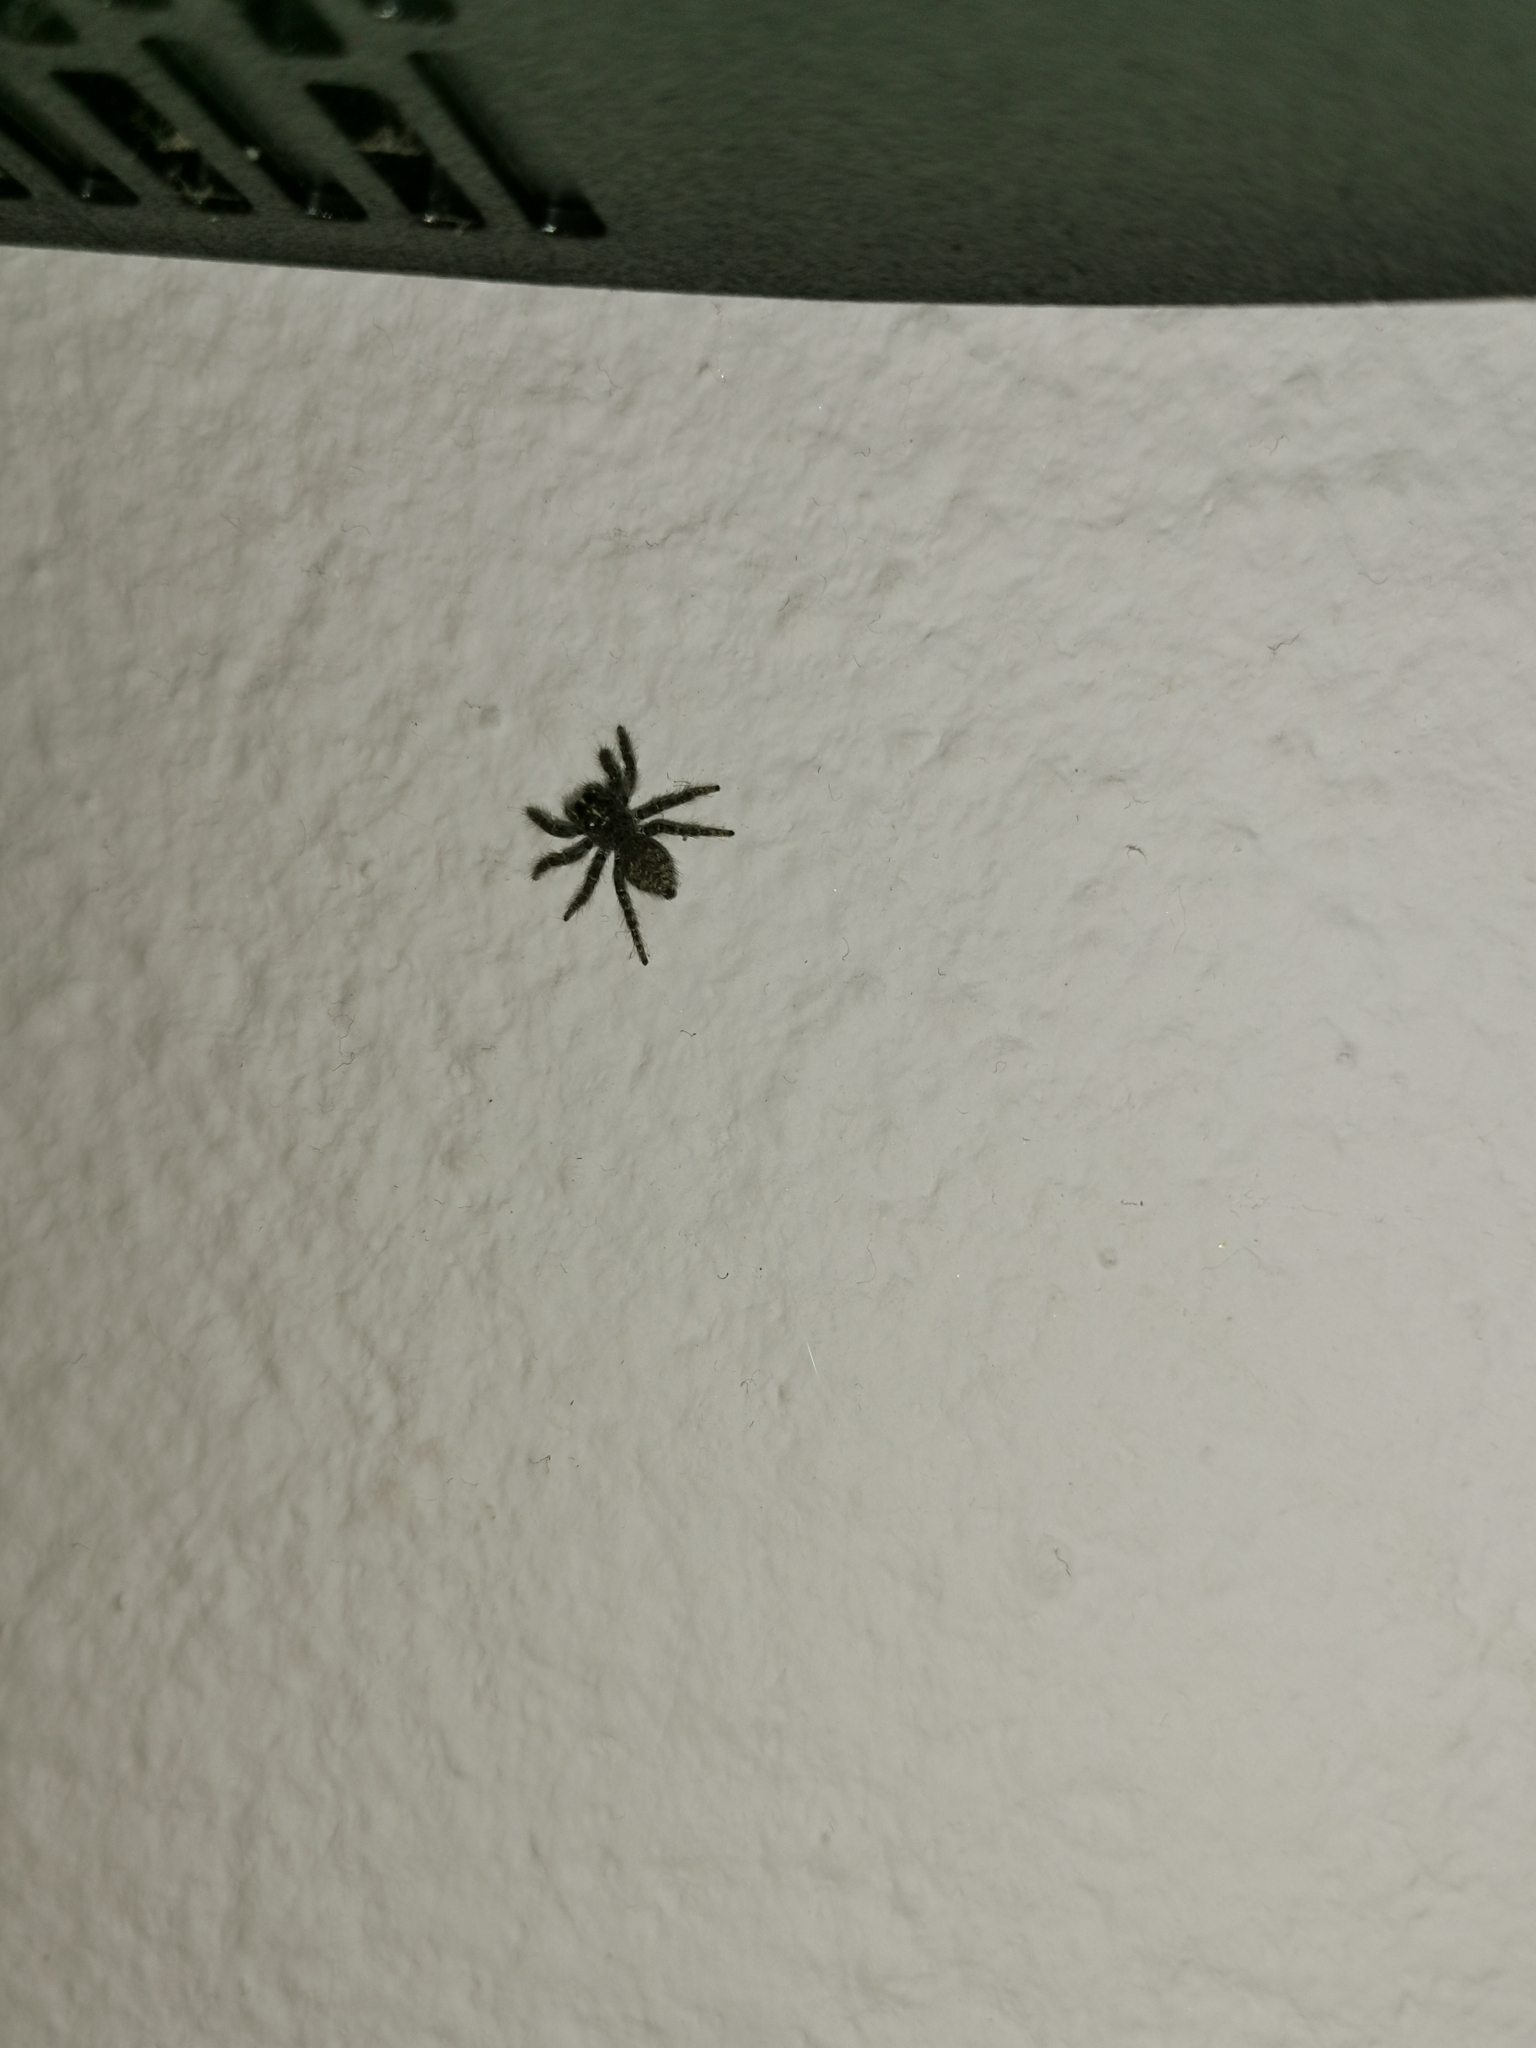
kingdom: Animalia
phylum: Arthropoda
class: Arachnida
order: Araneae
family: Salticidae
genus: Philaeus
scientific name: Philaeus chrysops
